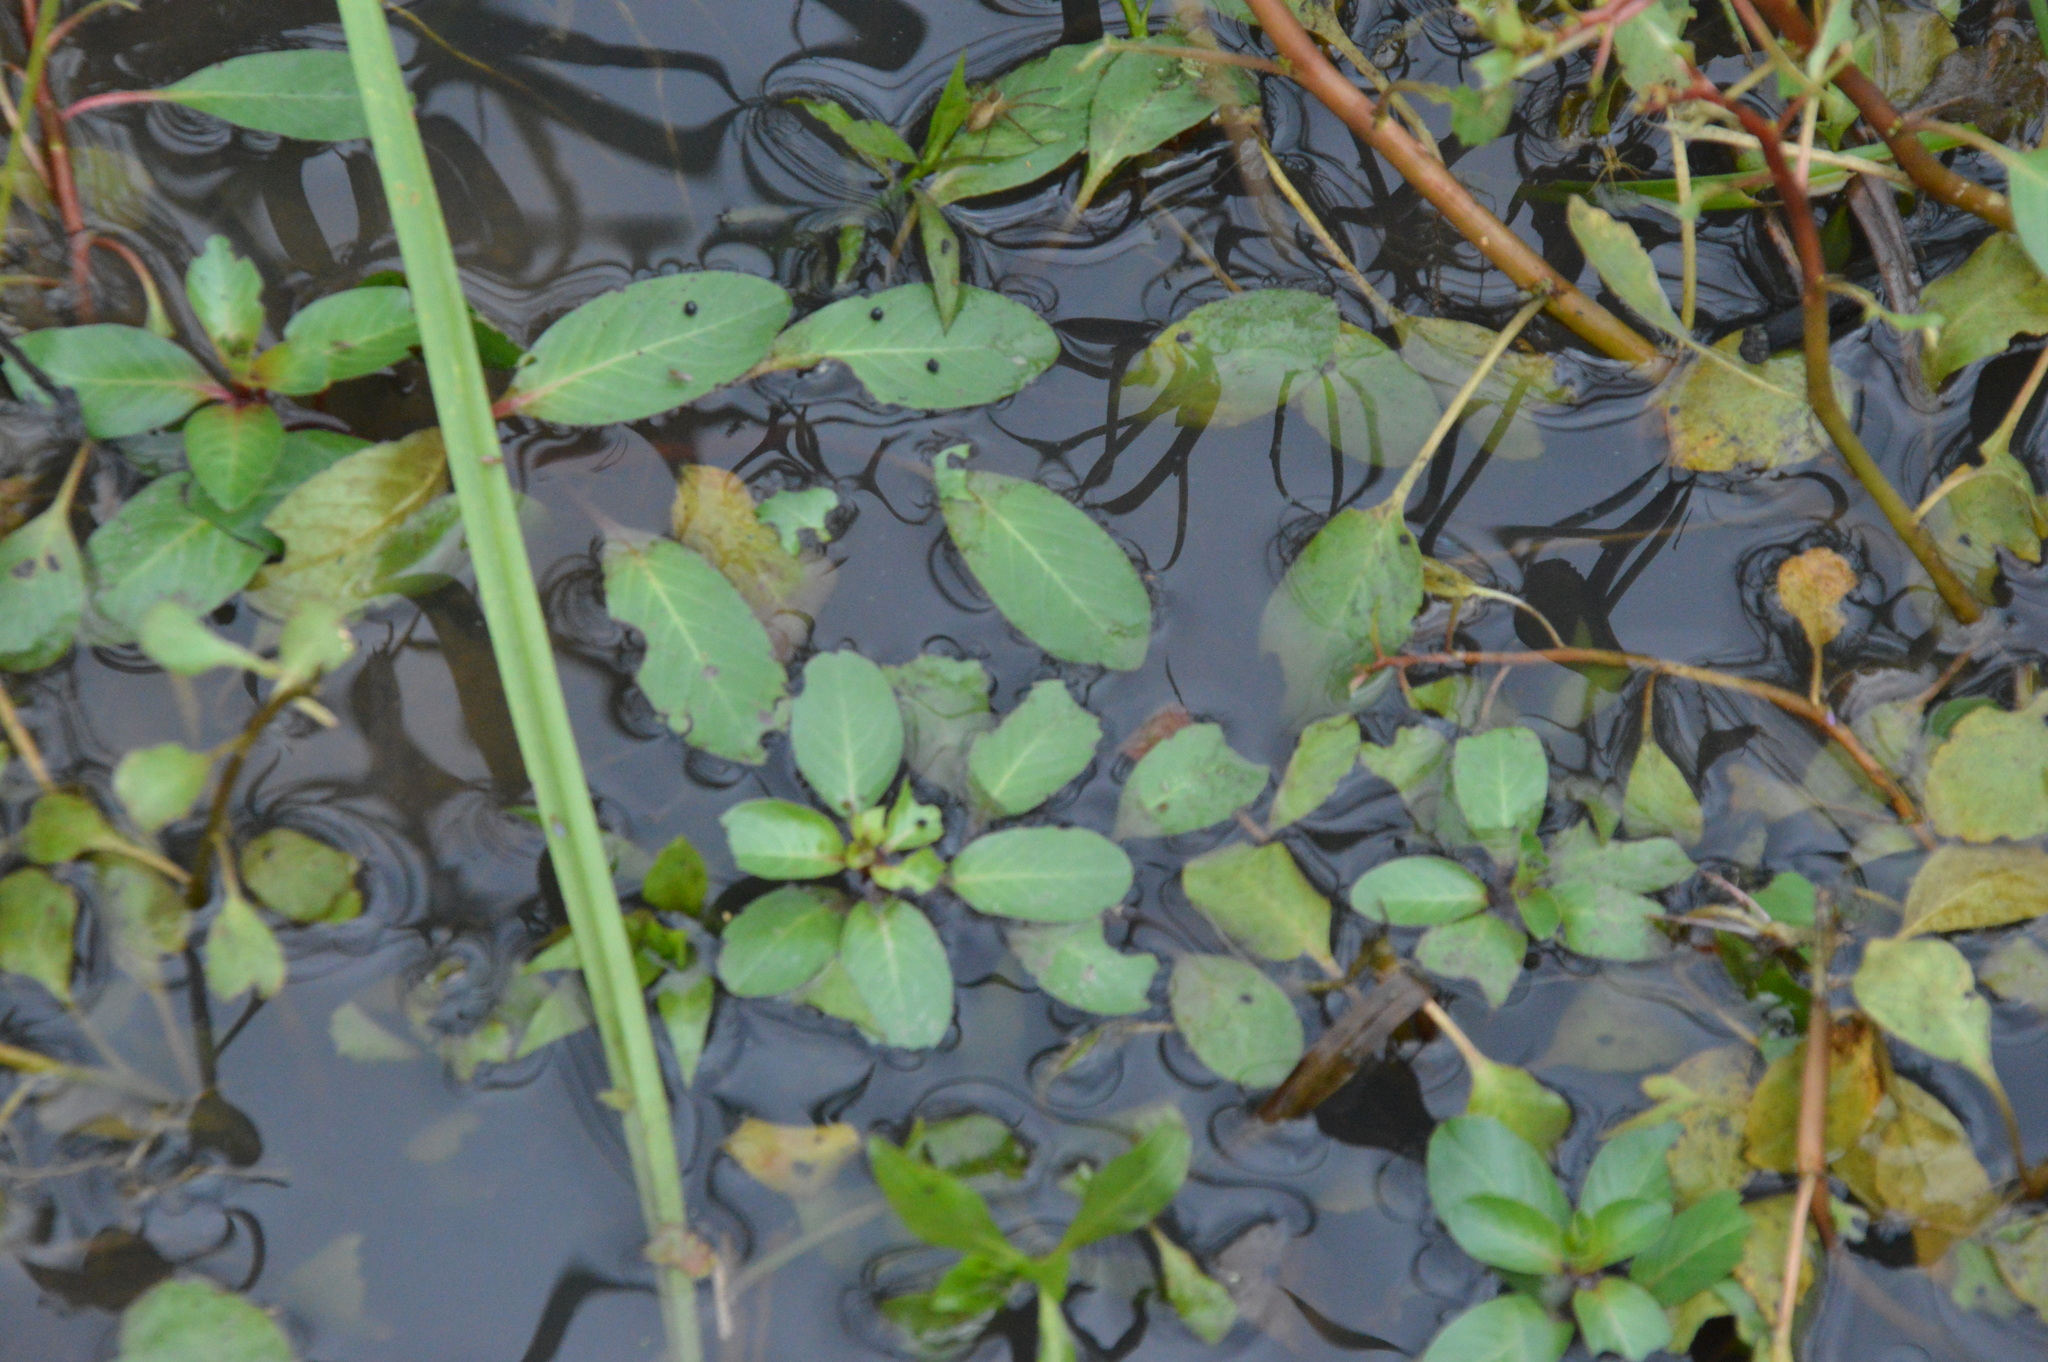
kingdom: Plantae
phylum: Tracheophyta
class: Magnoliopsida
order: Myrtales
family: Onagraceae
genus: Ludwigia
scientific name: Ludwigia peploides
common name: Floating primrose-willow
